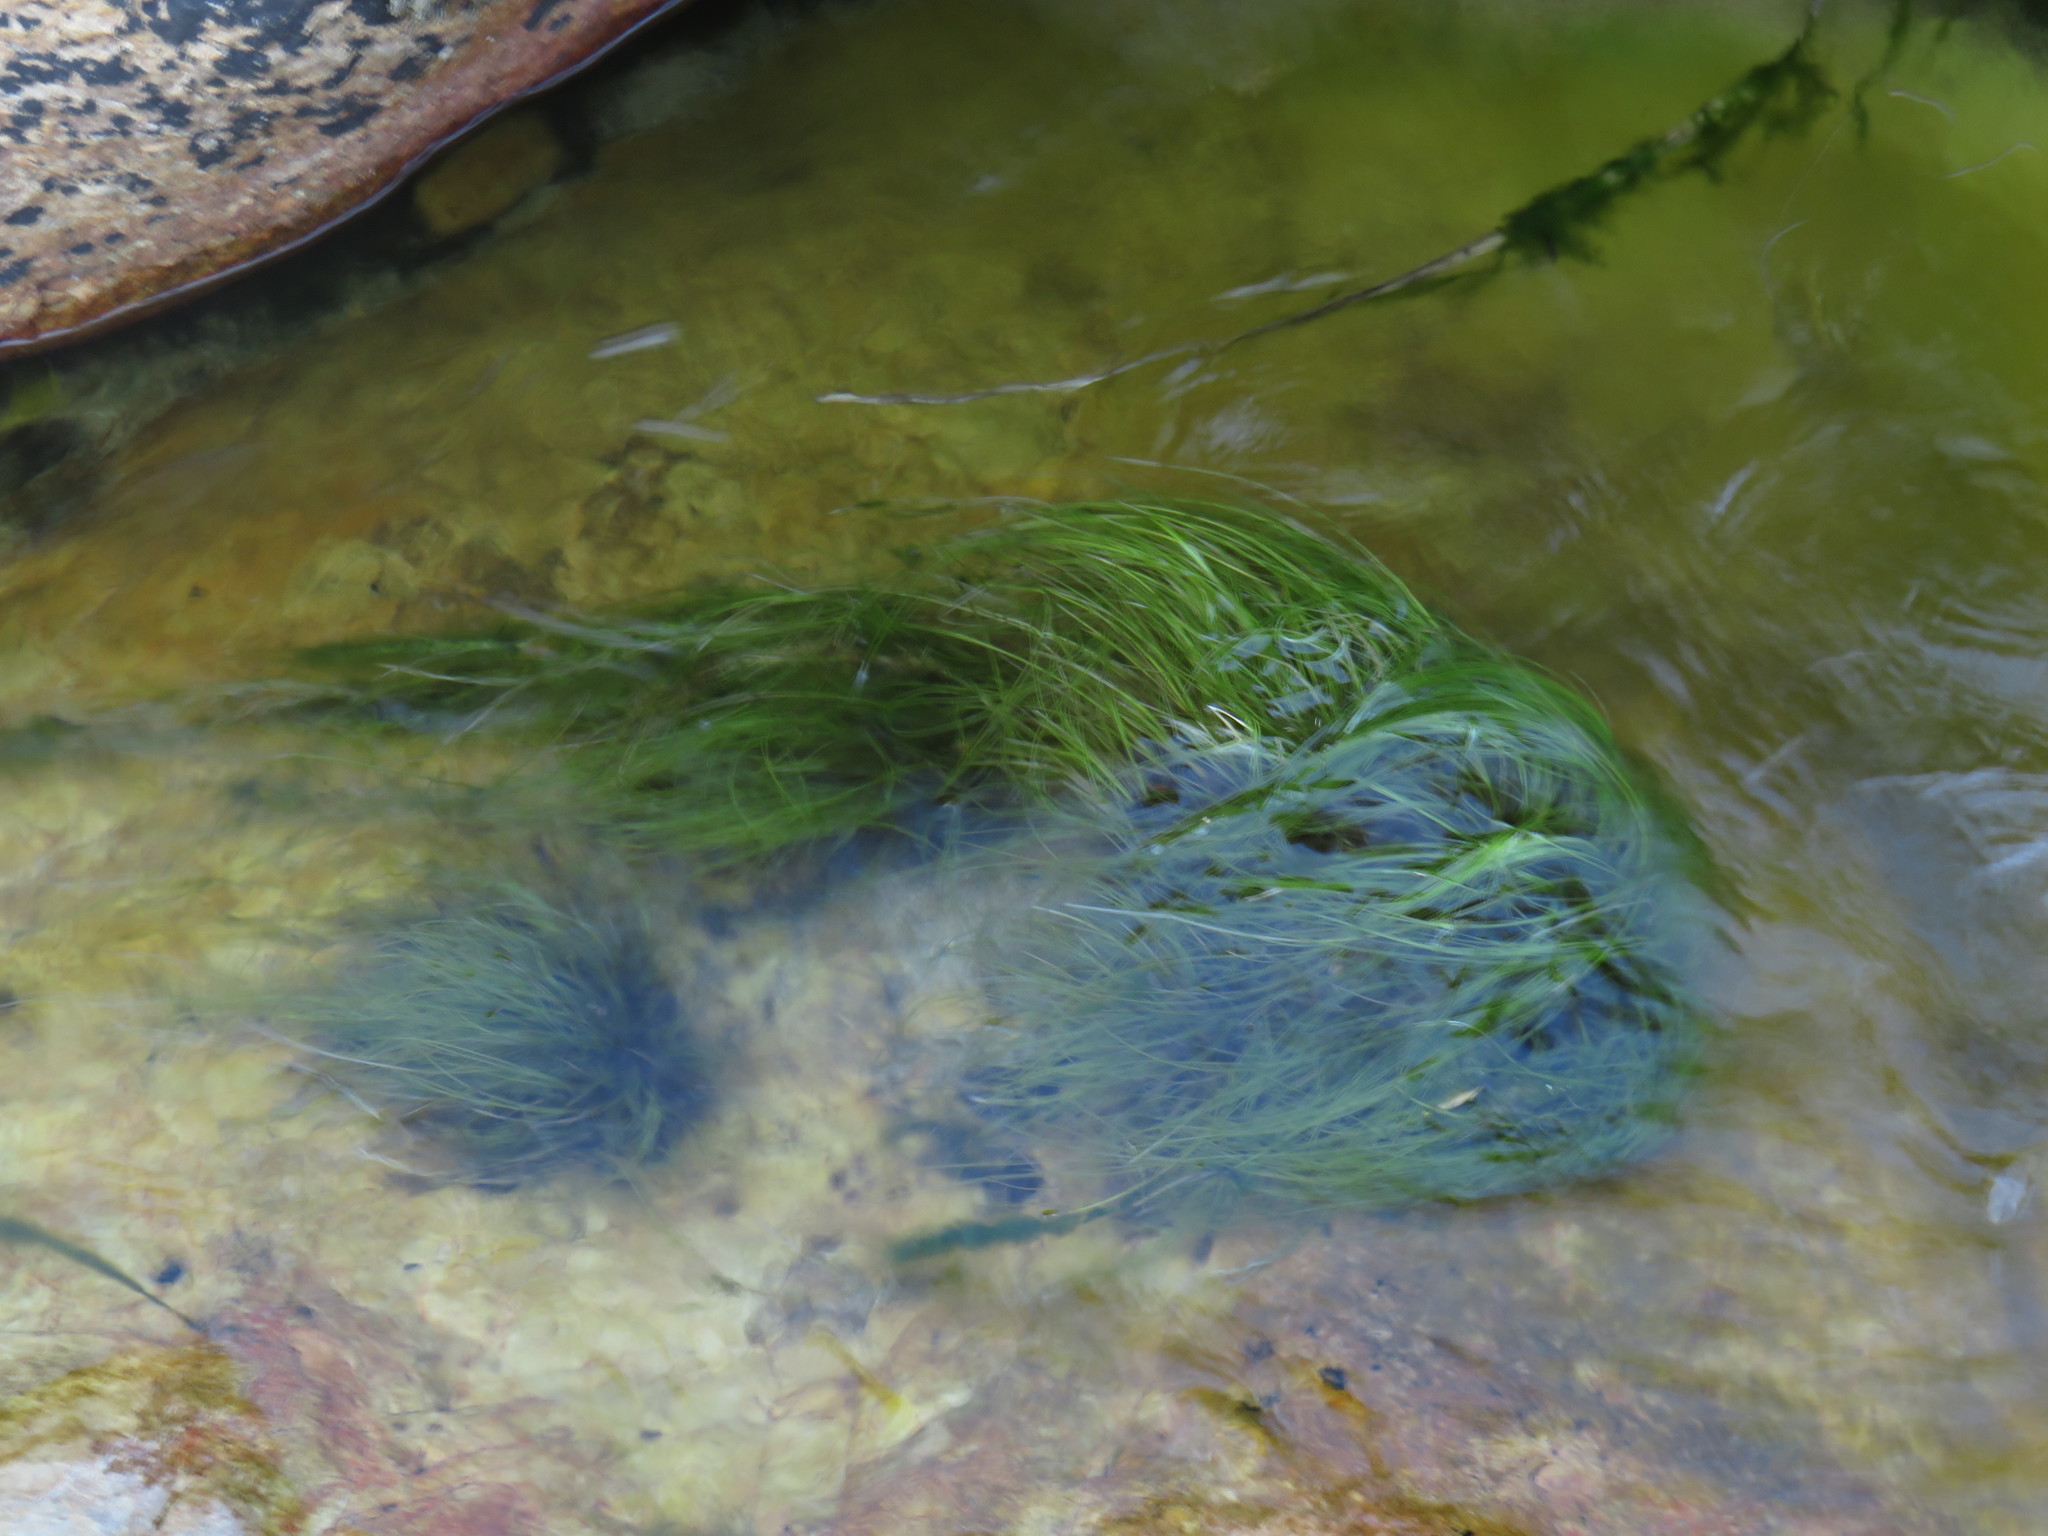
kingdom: Plantae
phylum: Tracheophyta
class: Liliopsida
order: Poales
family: Cyperaceae
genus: Isolepis
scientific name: Isolepis digitata
